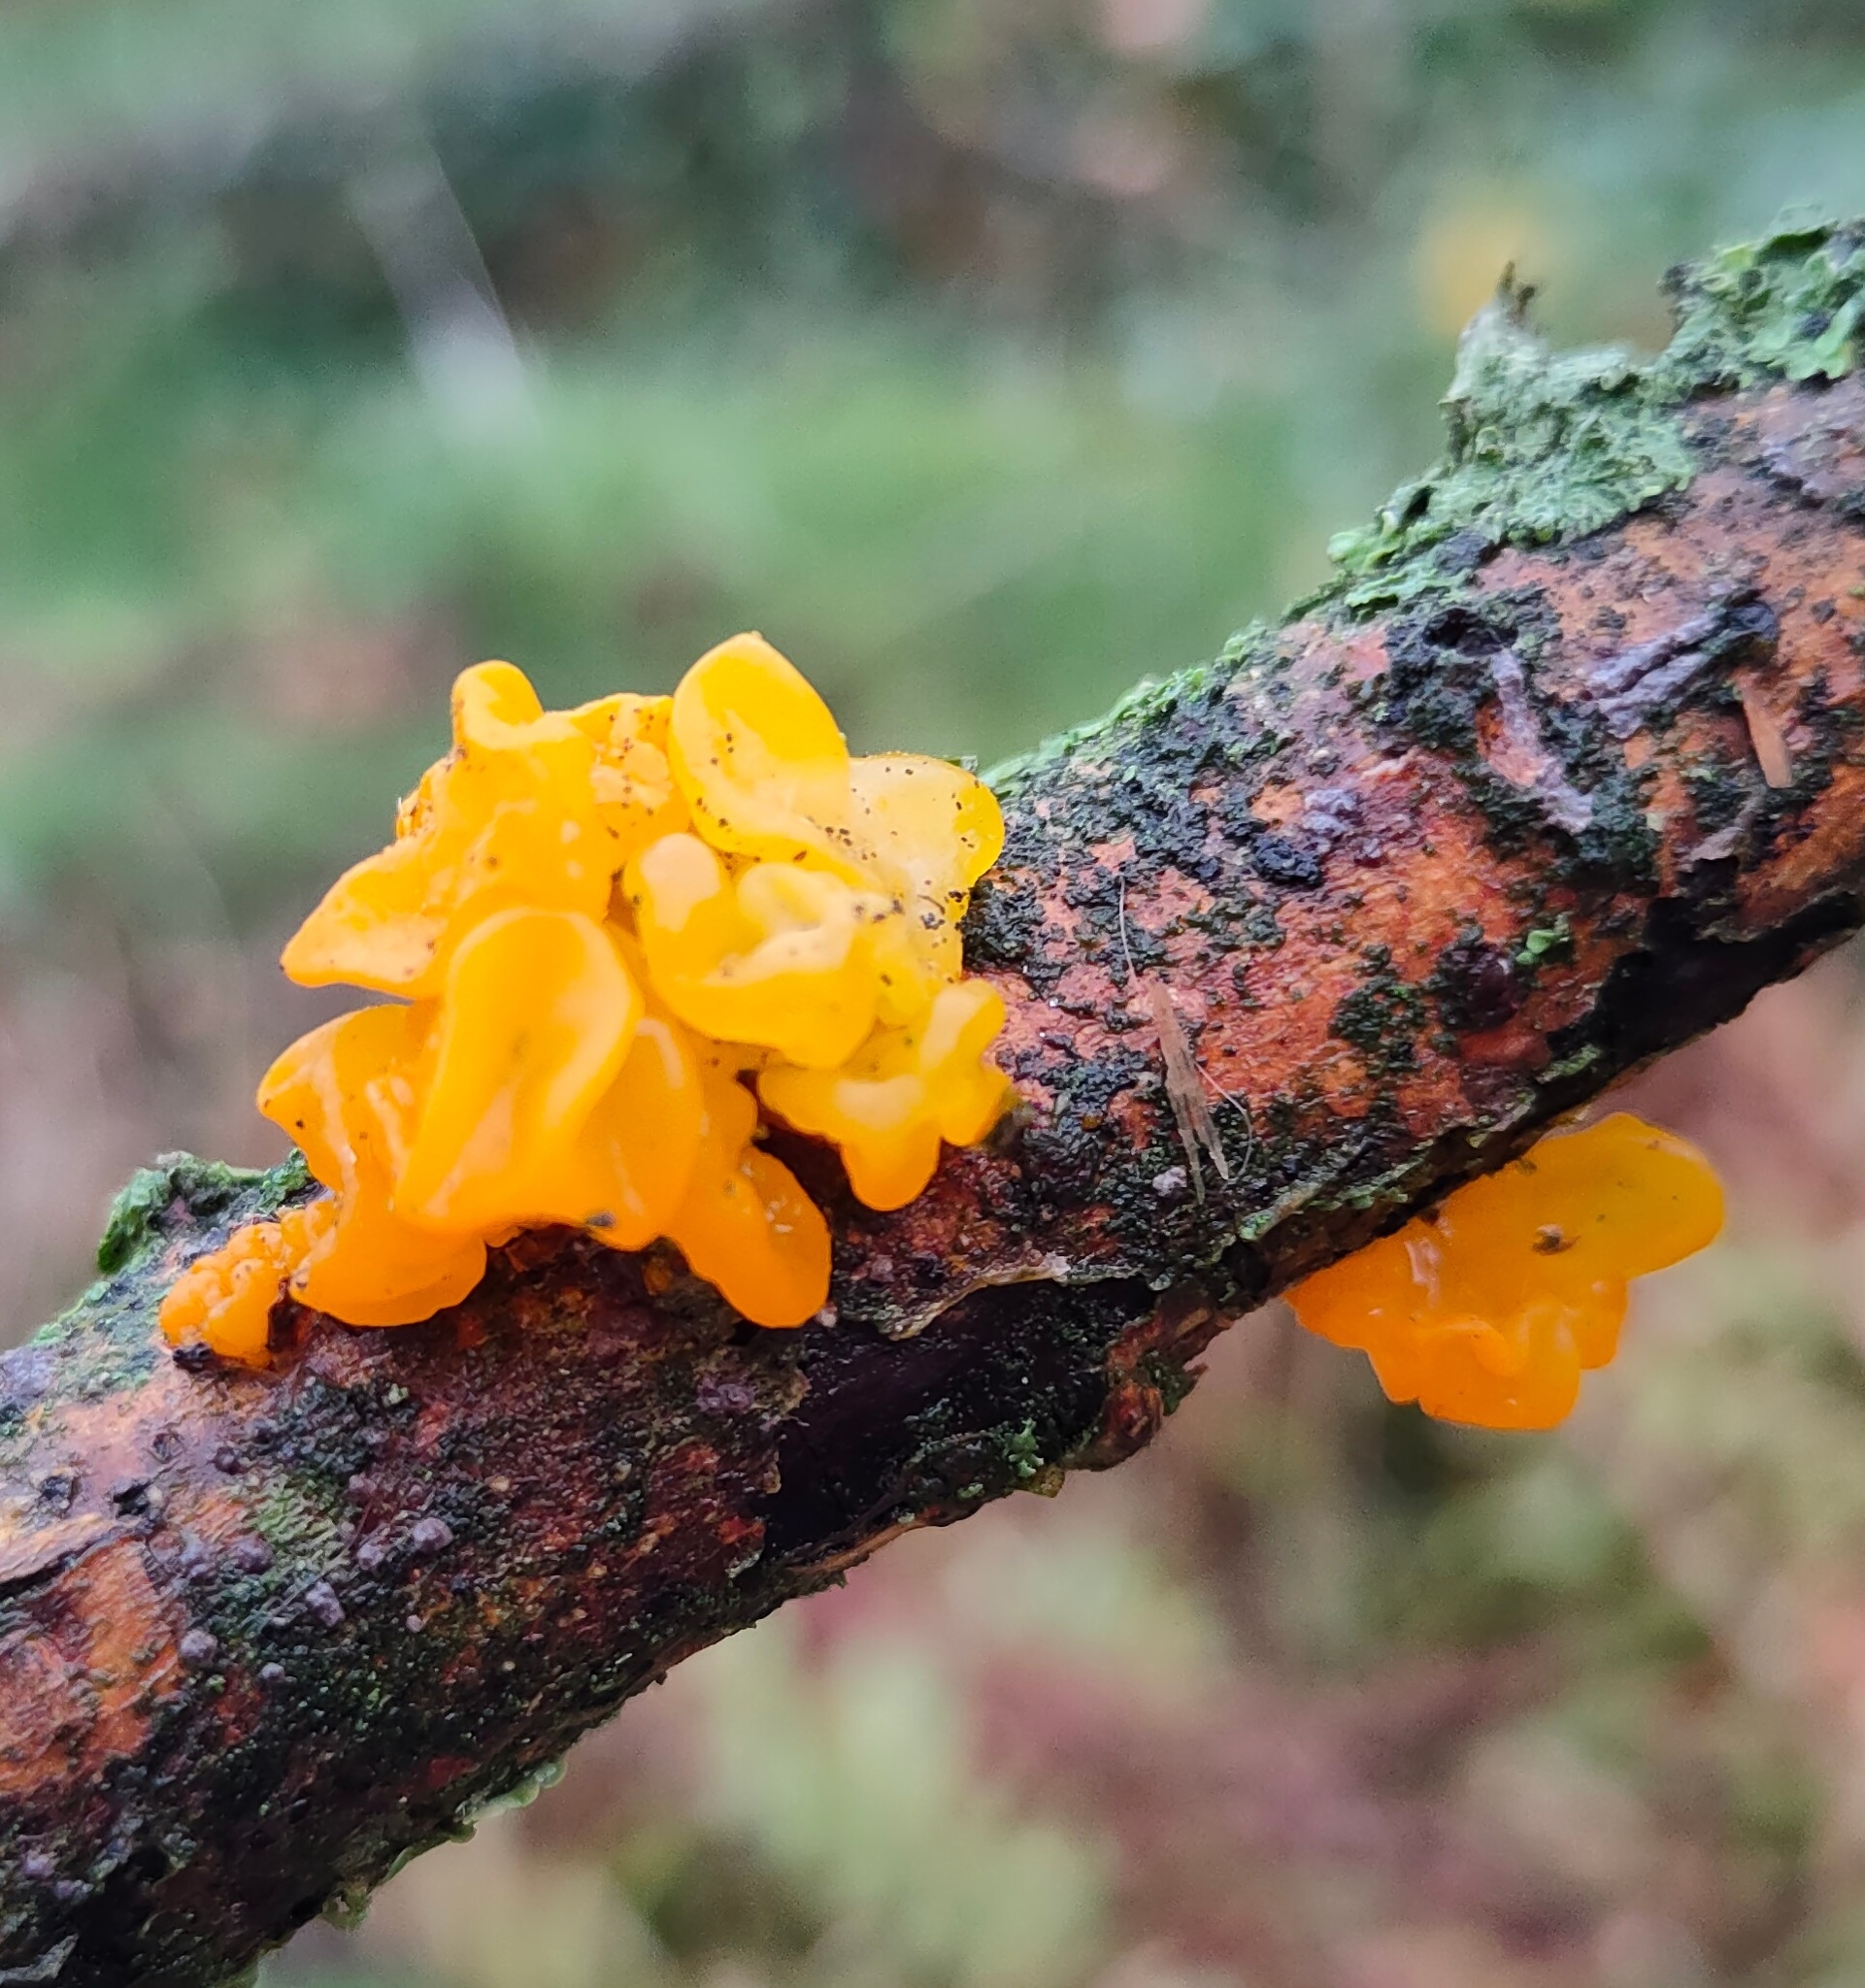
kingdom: Fungi
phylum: Basidiomycota
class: Tremellomycetes
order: Tremellales
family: Tremellaceae
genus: Tremella
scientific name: Tremella mesenterica
